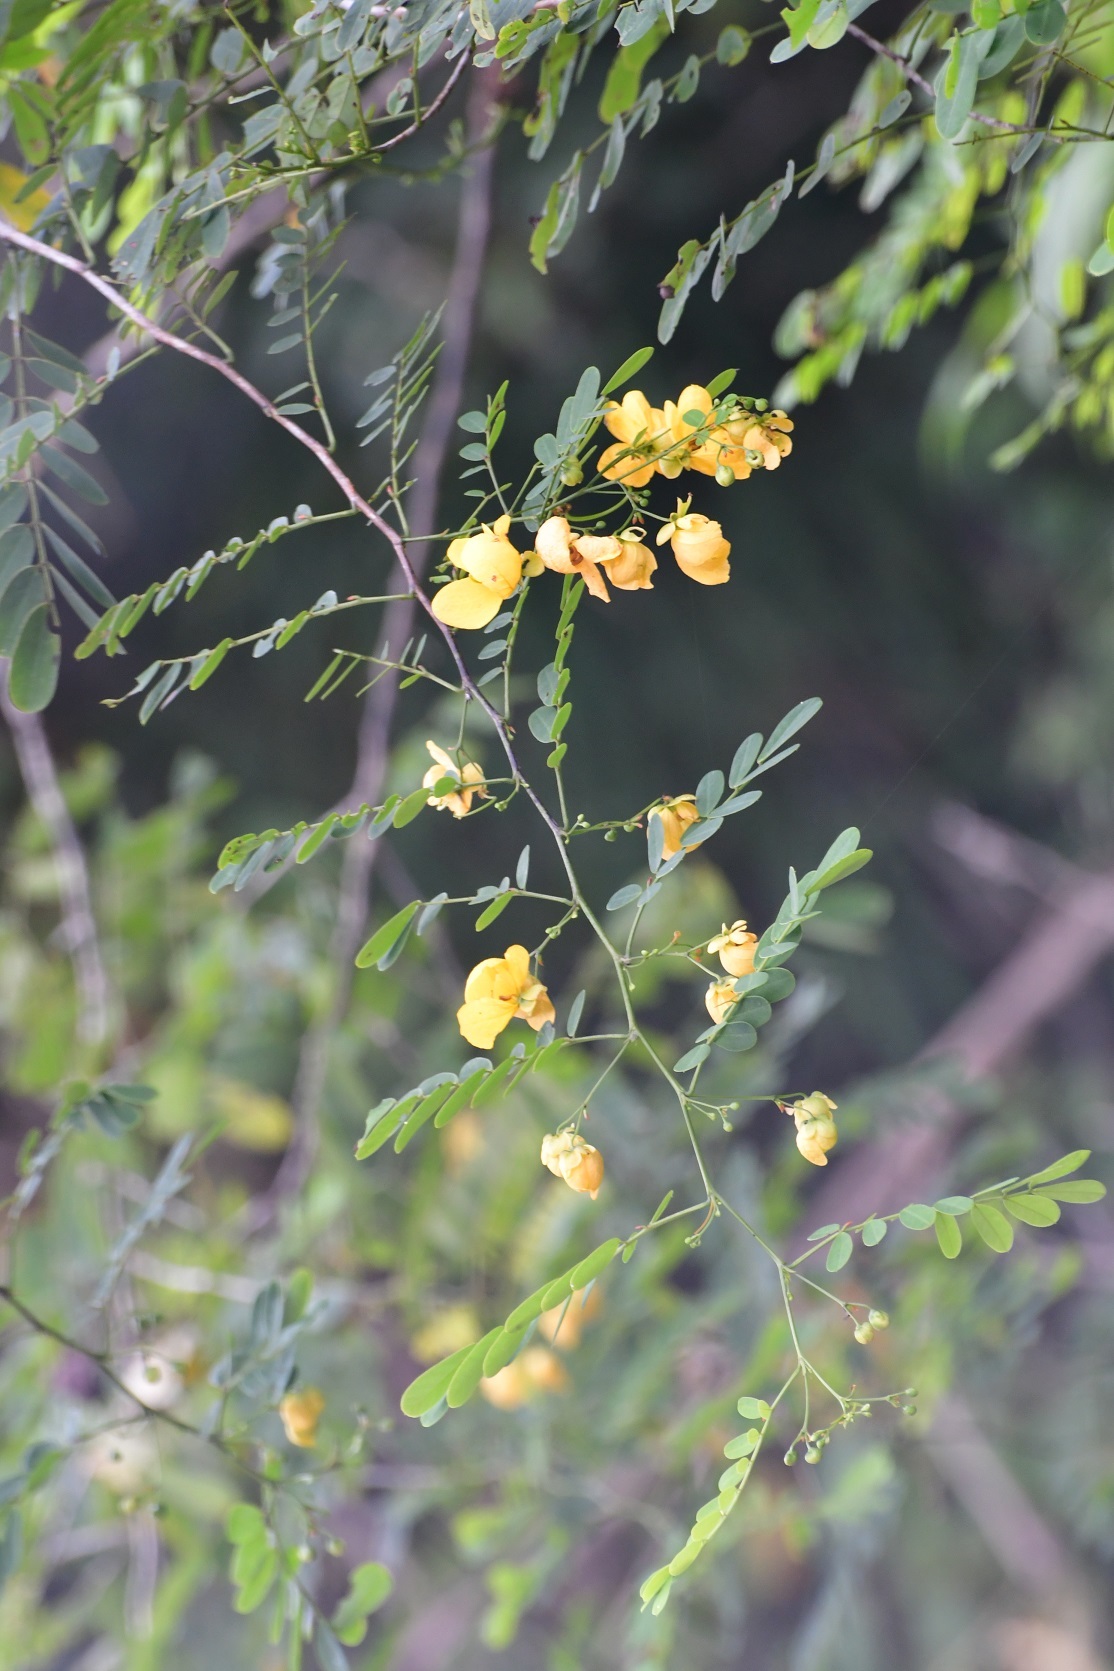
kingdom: Plantae
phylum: Tracheophyta
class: Magnoliopsida
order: Fabales
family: Fabaceae
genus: Senna
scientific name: Senna pallida
